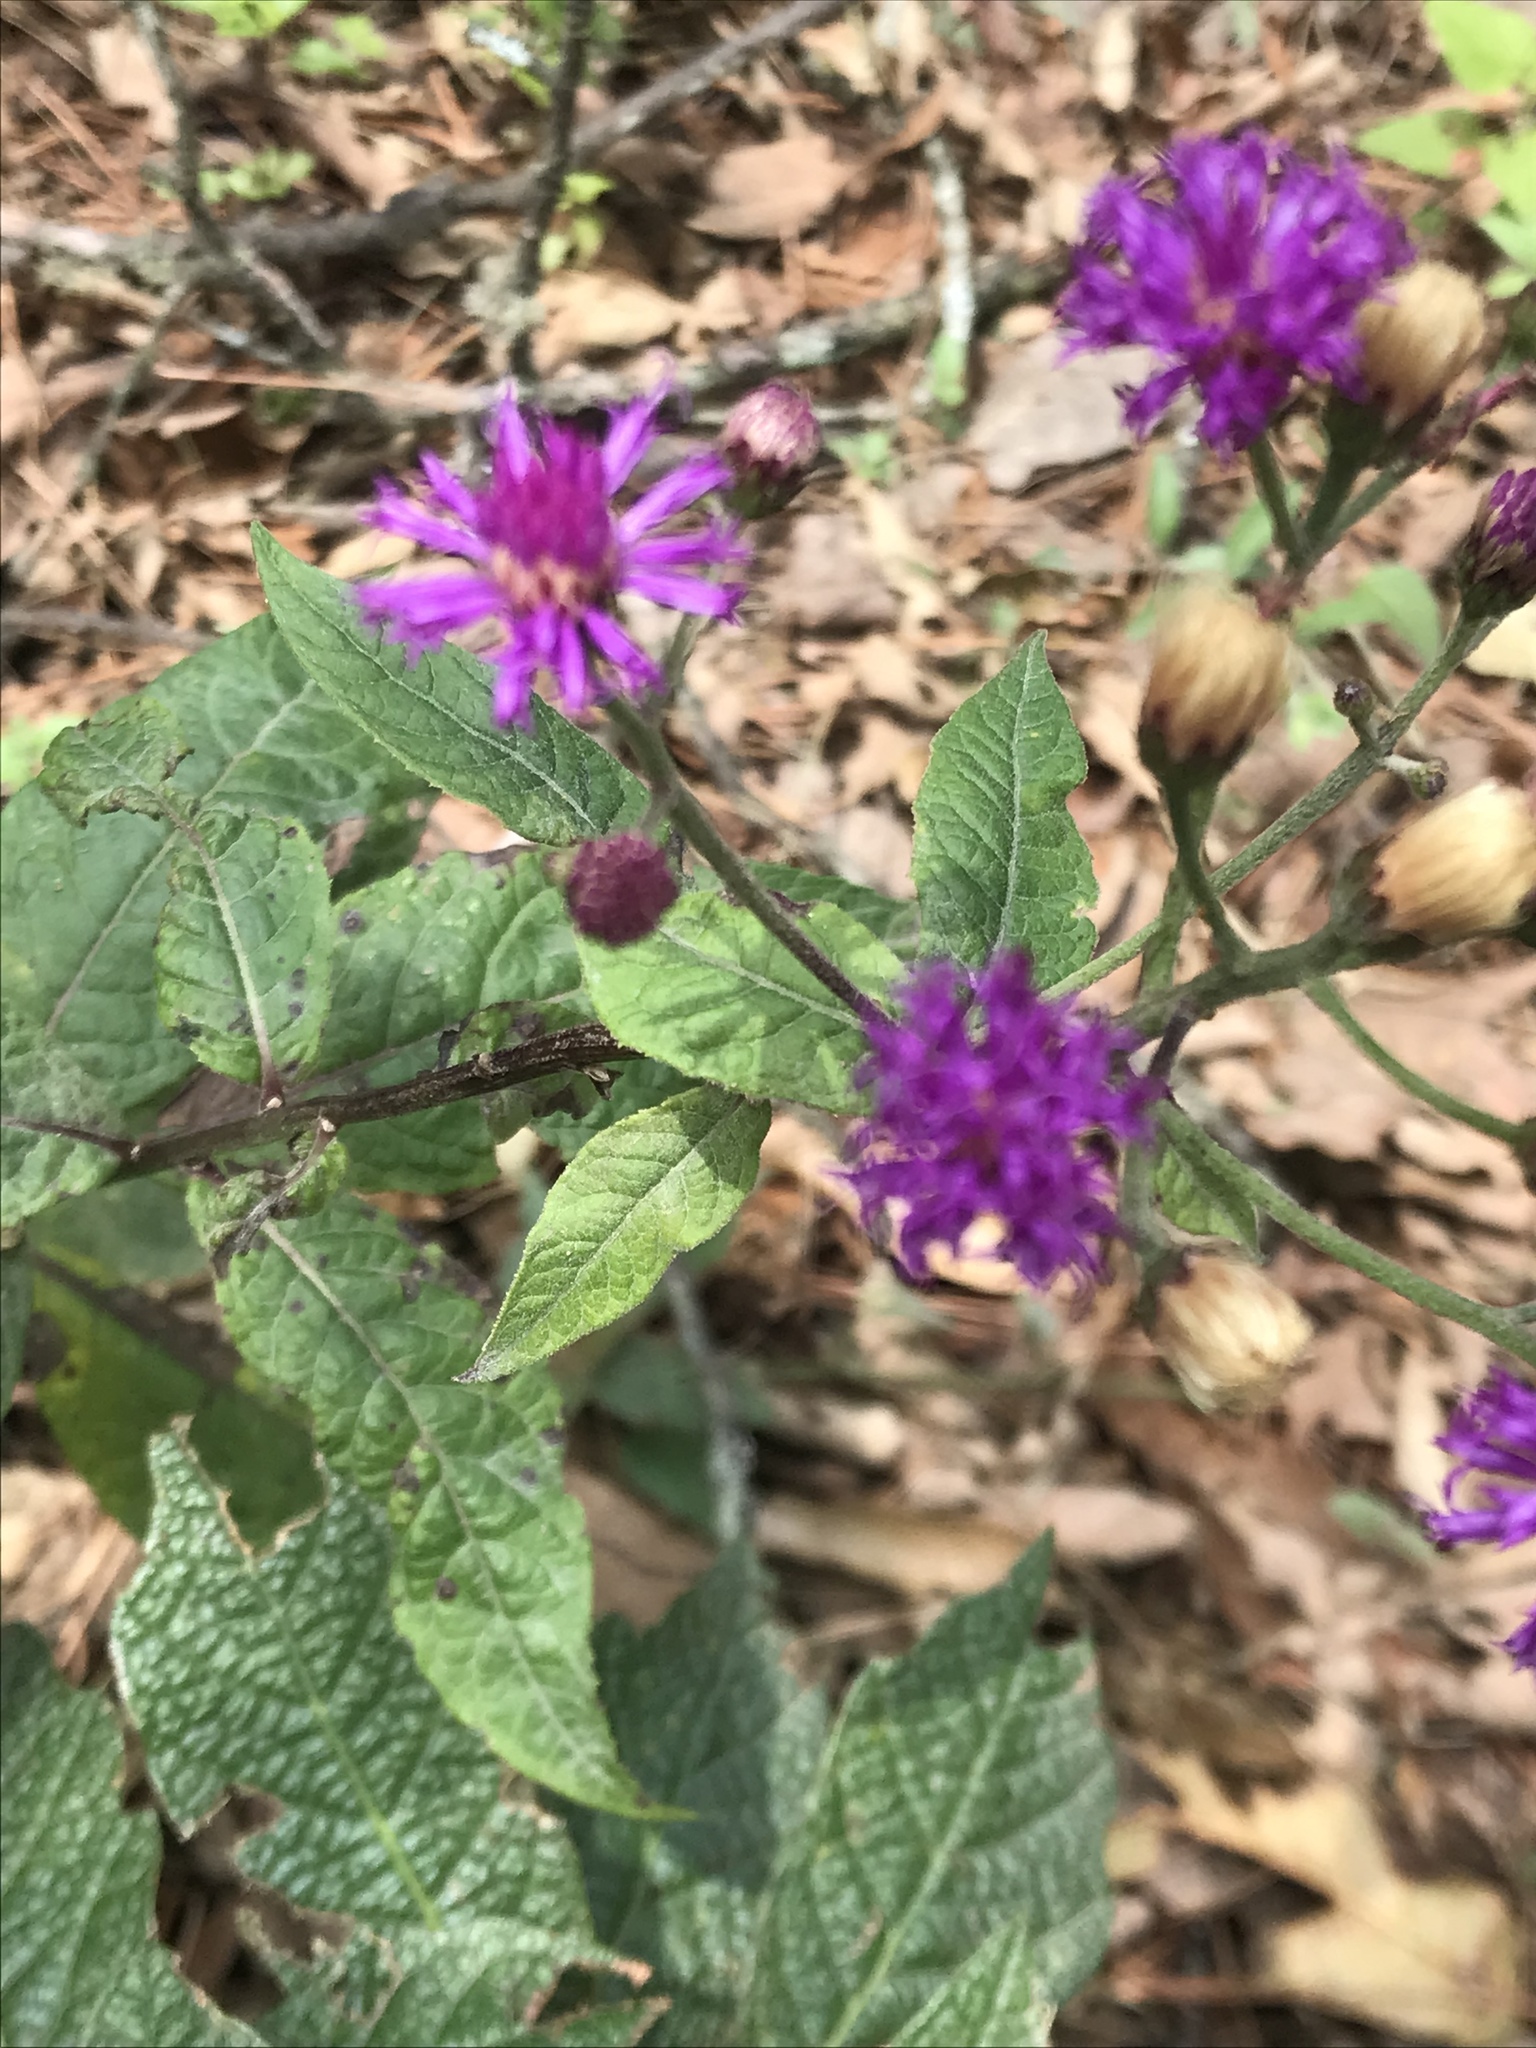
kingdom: Plantae
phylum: Tracheophyta
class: Magnoliopsida
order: Asterales
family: Asteraceae
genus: Vernonia
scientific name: Vernonia greggii
